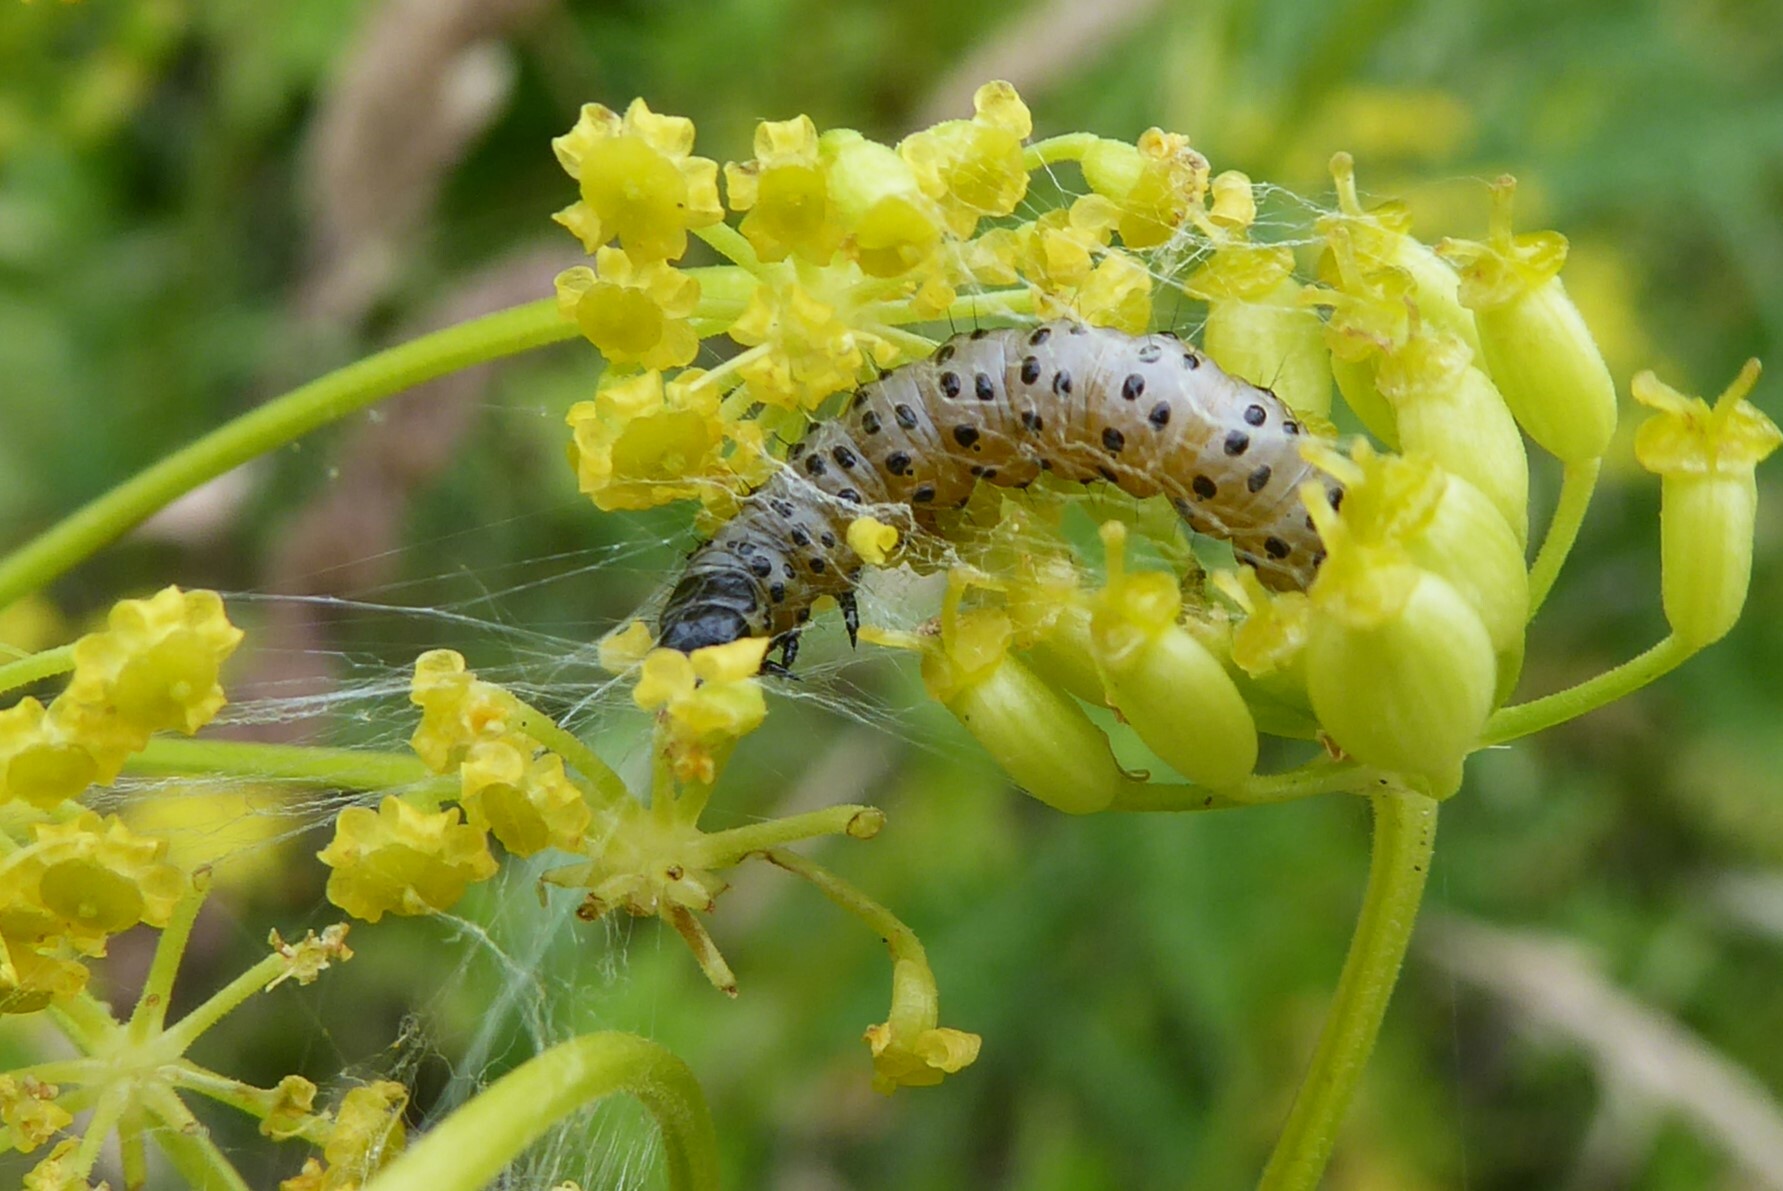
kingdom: Animalia
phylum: Arthropoda
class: Insecta
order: Lepidoptera
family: Depressariidae
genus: Depressaria
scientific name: Depressaria radiella
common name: Parsnip moth
